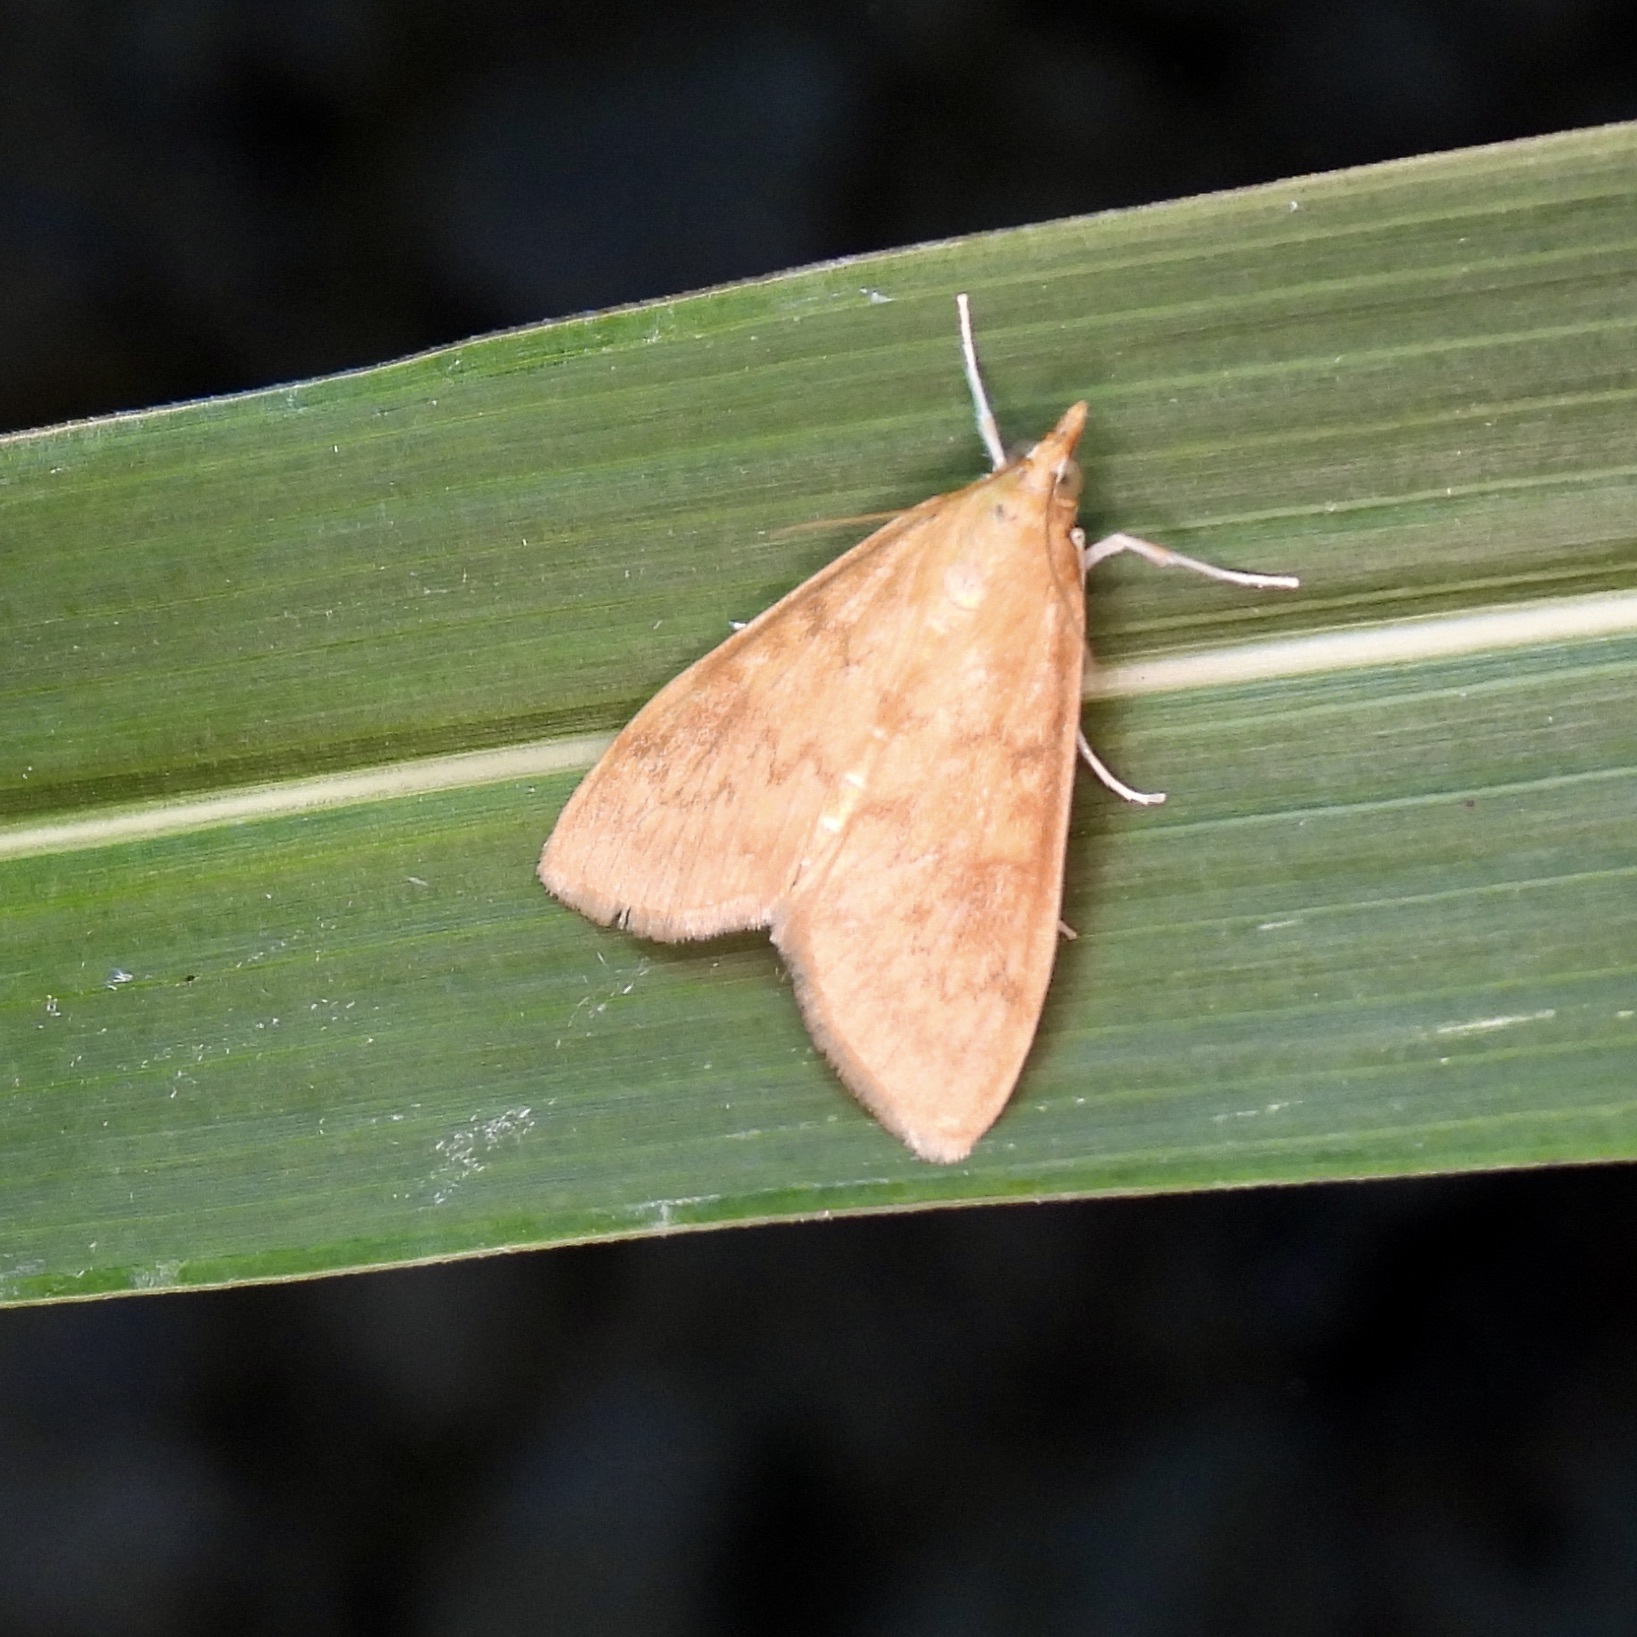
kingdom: Animalia
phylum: Arthropoda
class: Insecta
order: Lepidoptera
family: Crambidae
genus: Ostrinia
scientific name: Ostrinia penitalis
